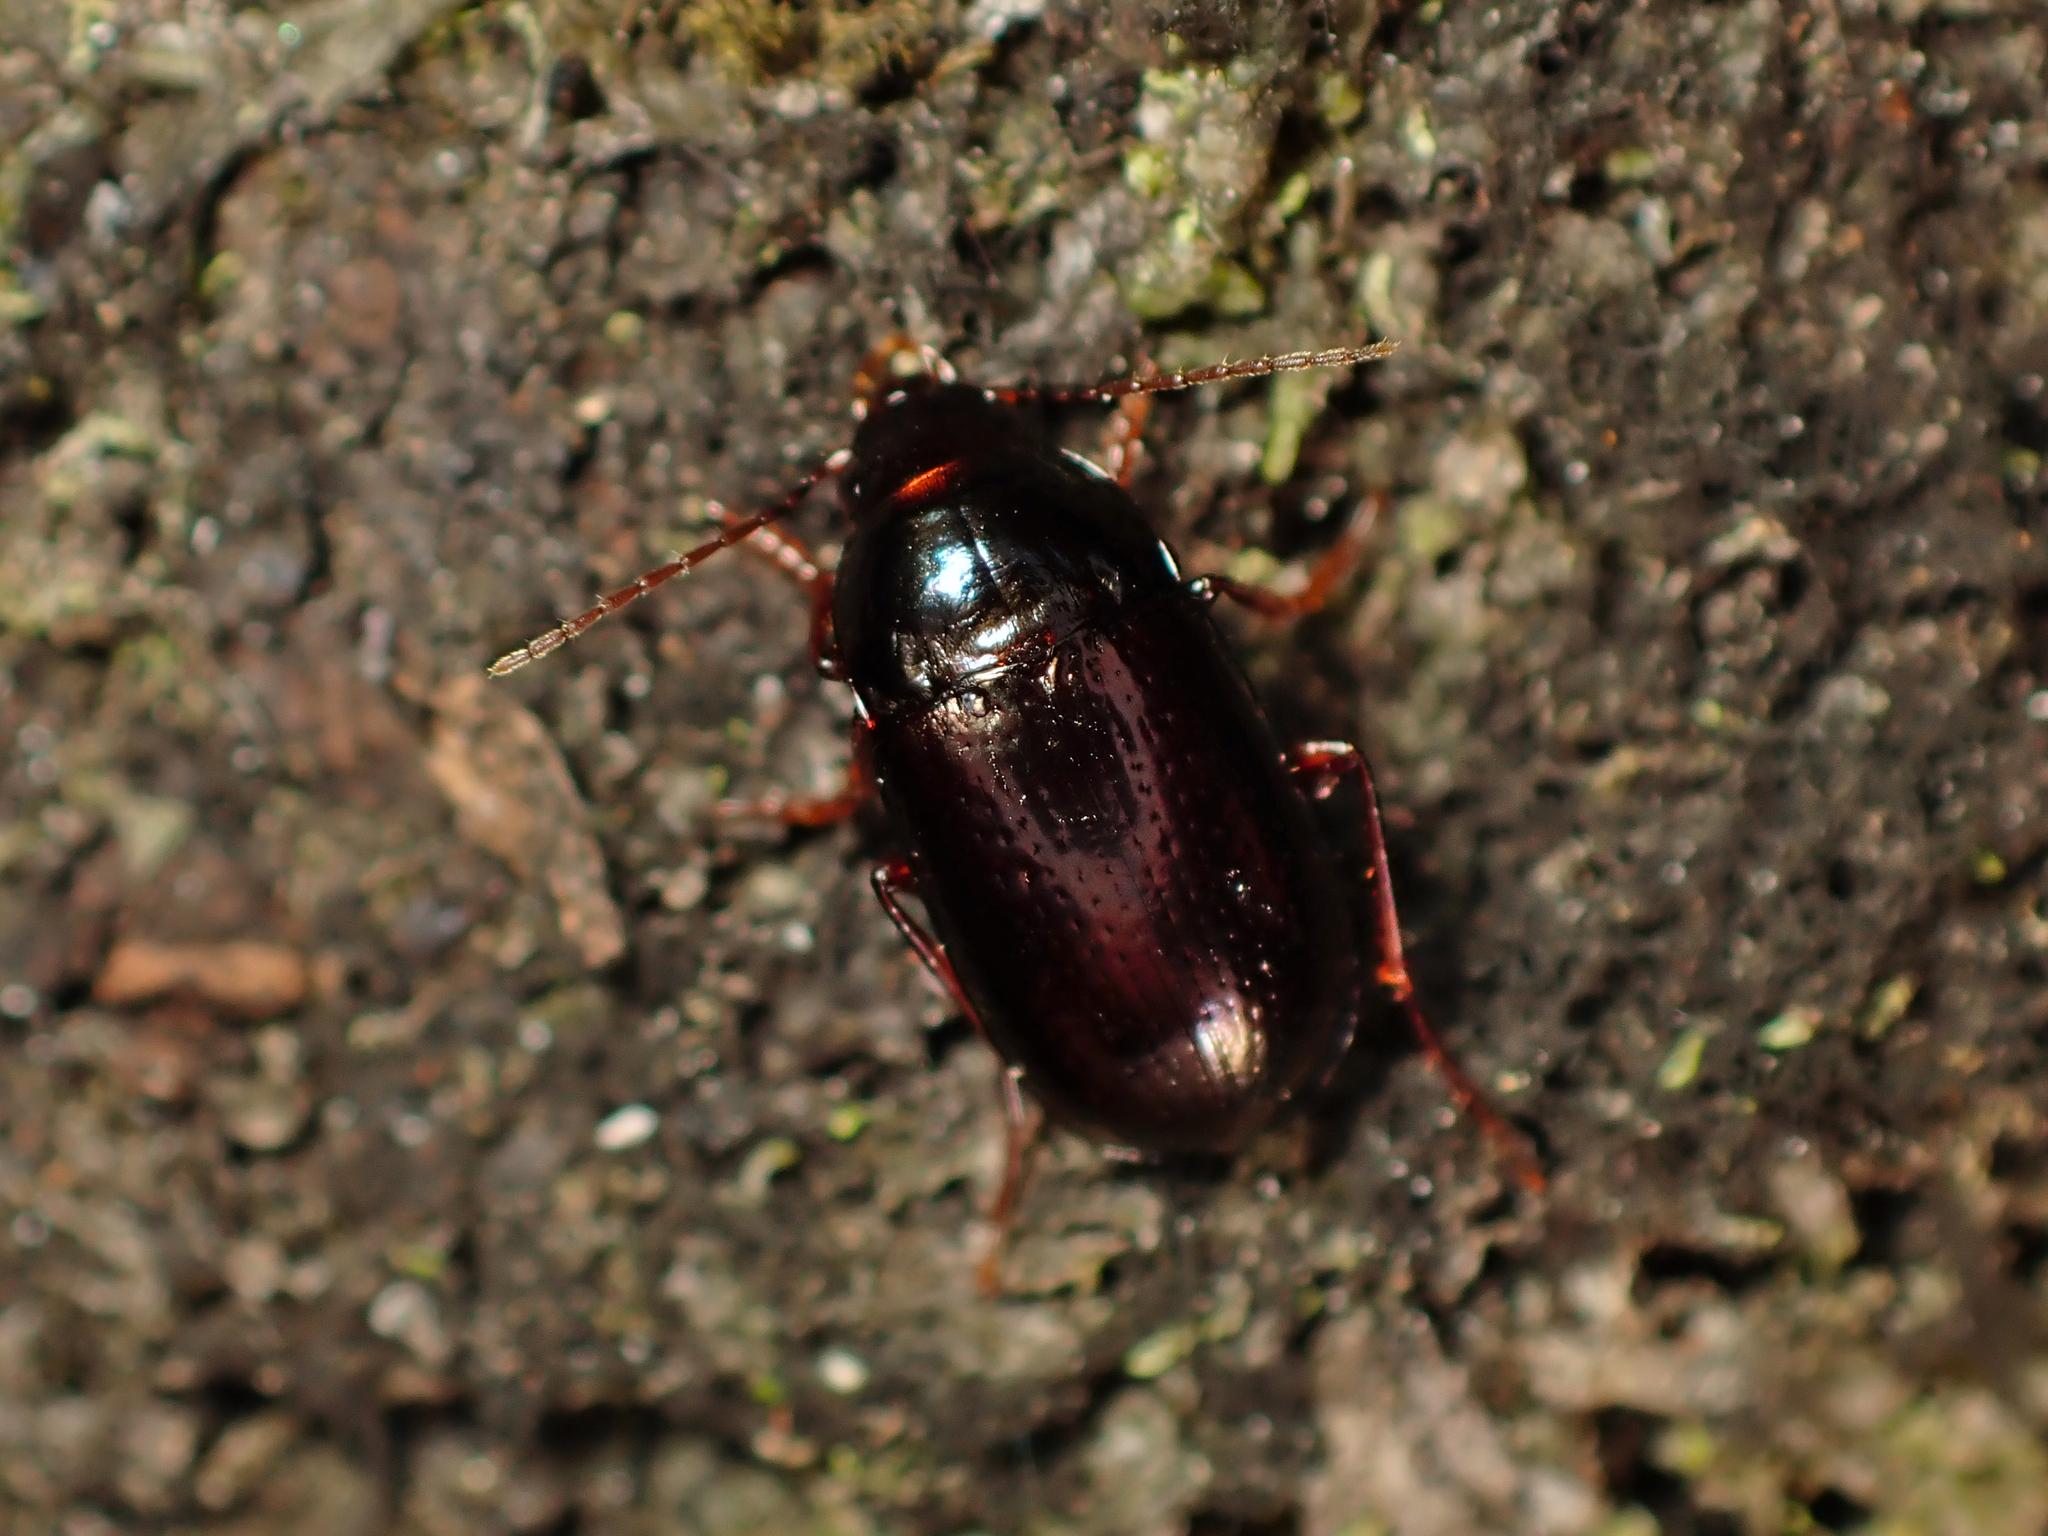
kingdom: Animalia
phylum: Arthropoda
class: Insecta
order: Coleoptera
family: Carabidae
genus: Amarotypus
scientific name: Amarotypus edwardsii
